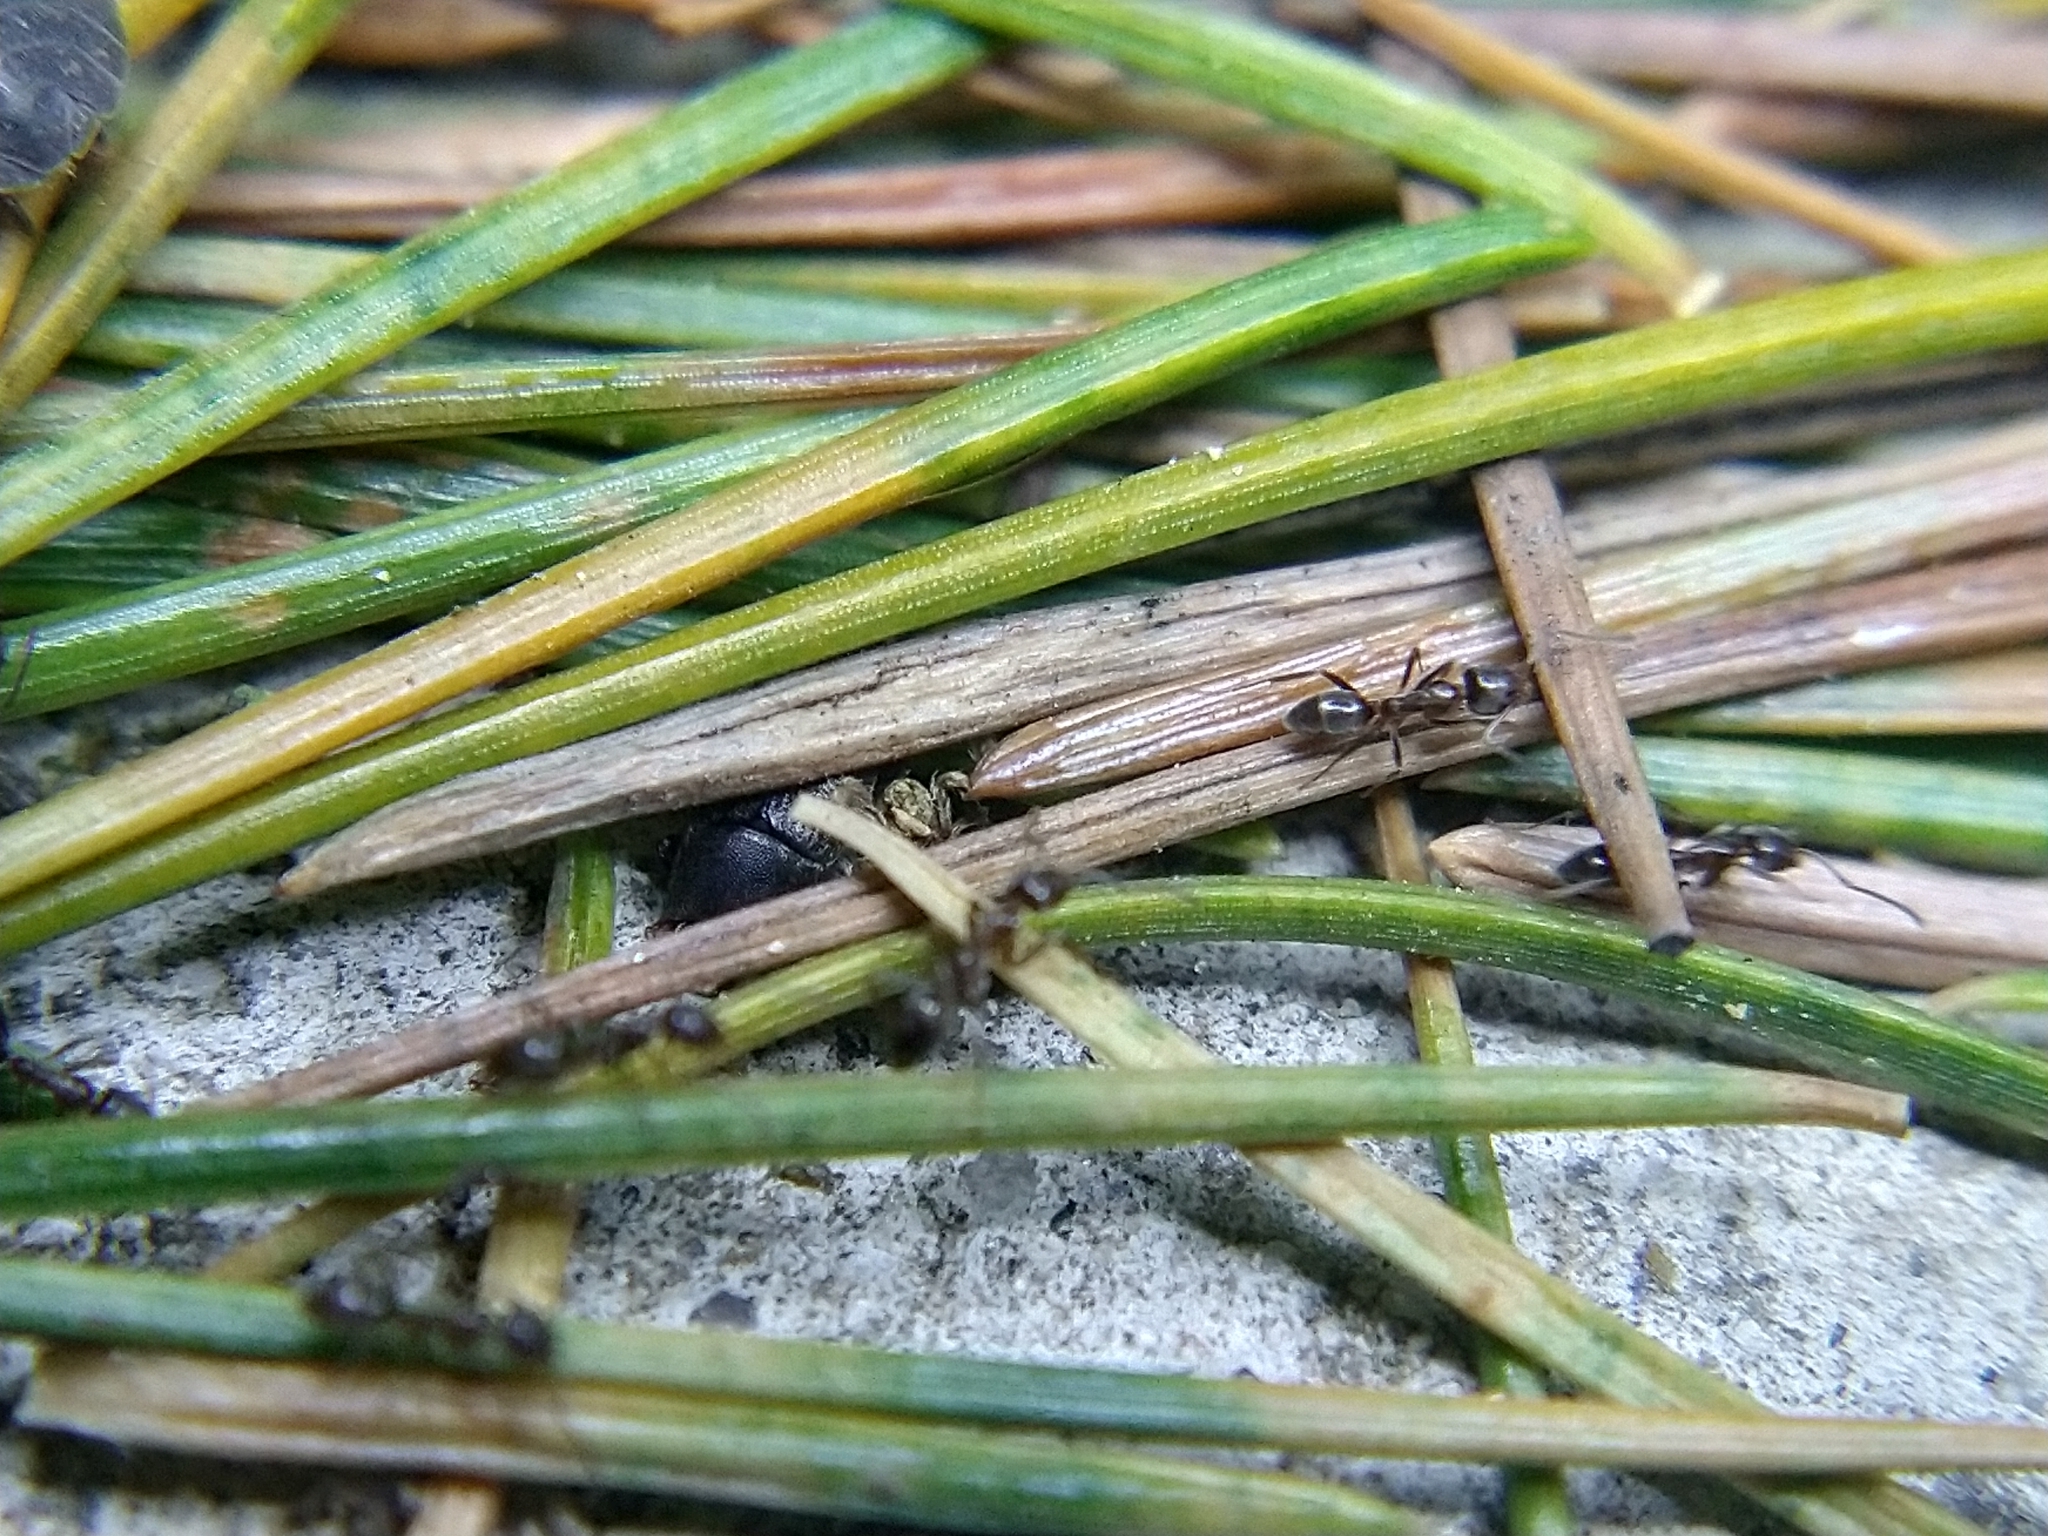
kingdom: Animalia
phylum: Arthropoda
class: Insecta
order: Hymenoptera
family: Formicidae
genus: Linepithema
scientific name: Linepithema humile
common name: Argentine ant
